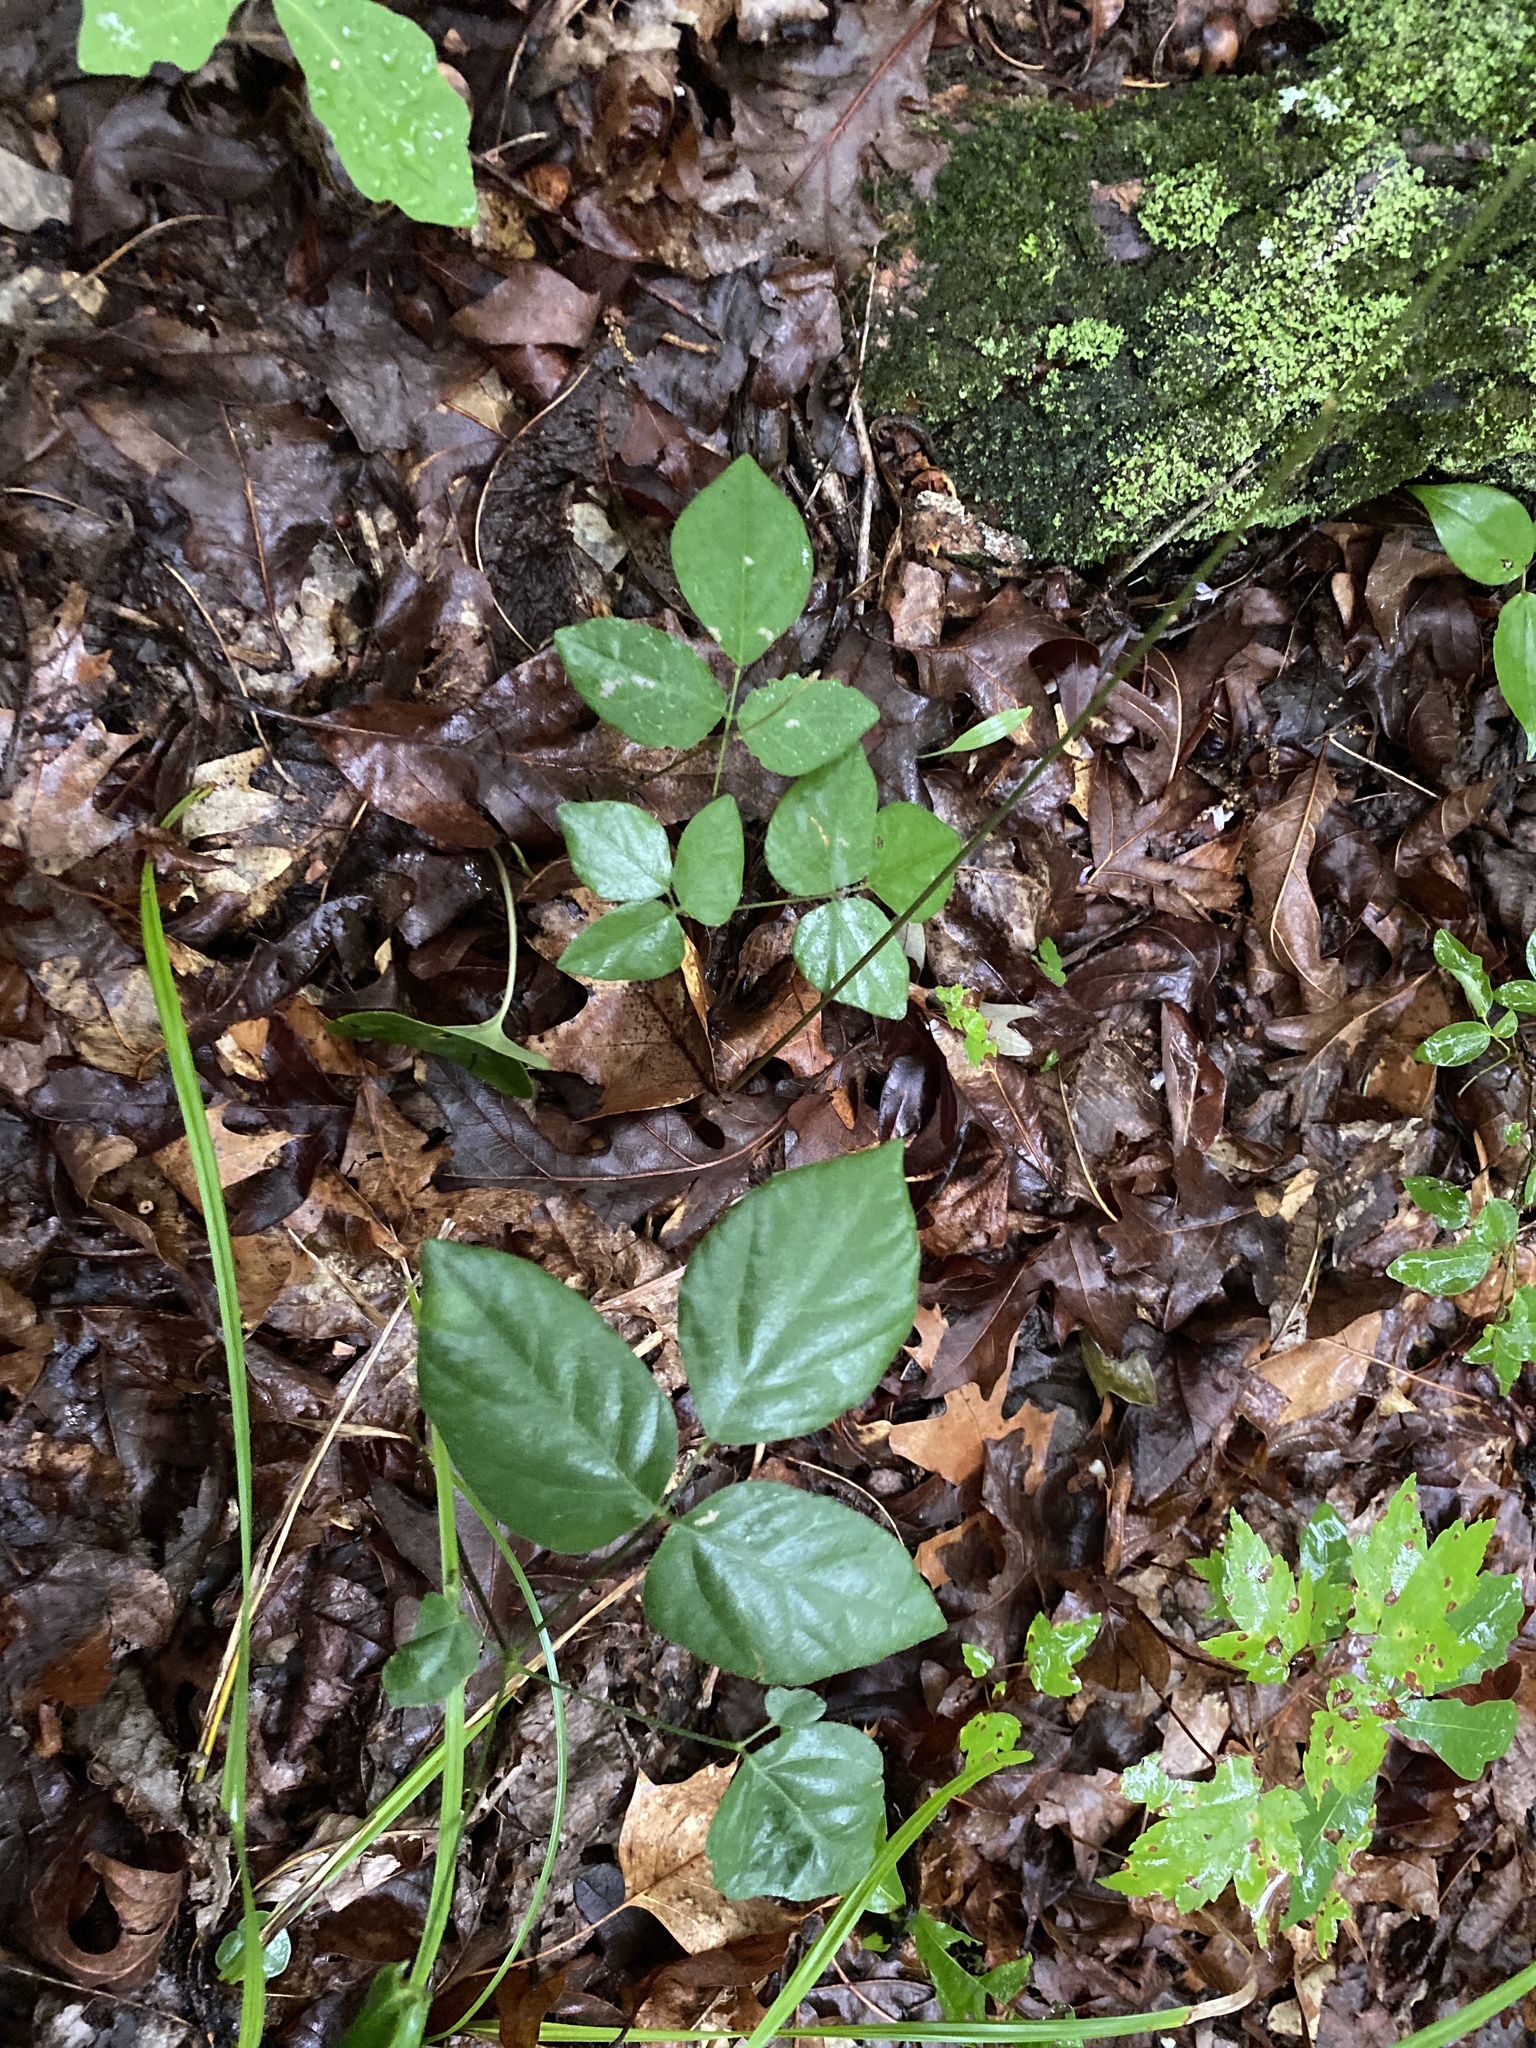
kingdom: Plantae
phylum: Tracheophyta
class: Magnoliopsida
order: Fabales
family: Fabaceae
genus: Hylodesmum
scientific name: Hylodesmum nudiflorum
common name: Bare-stemmed tick-trefoil
